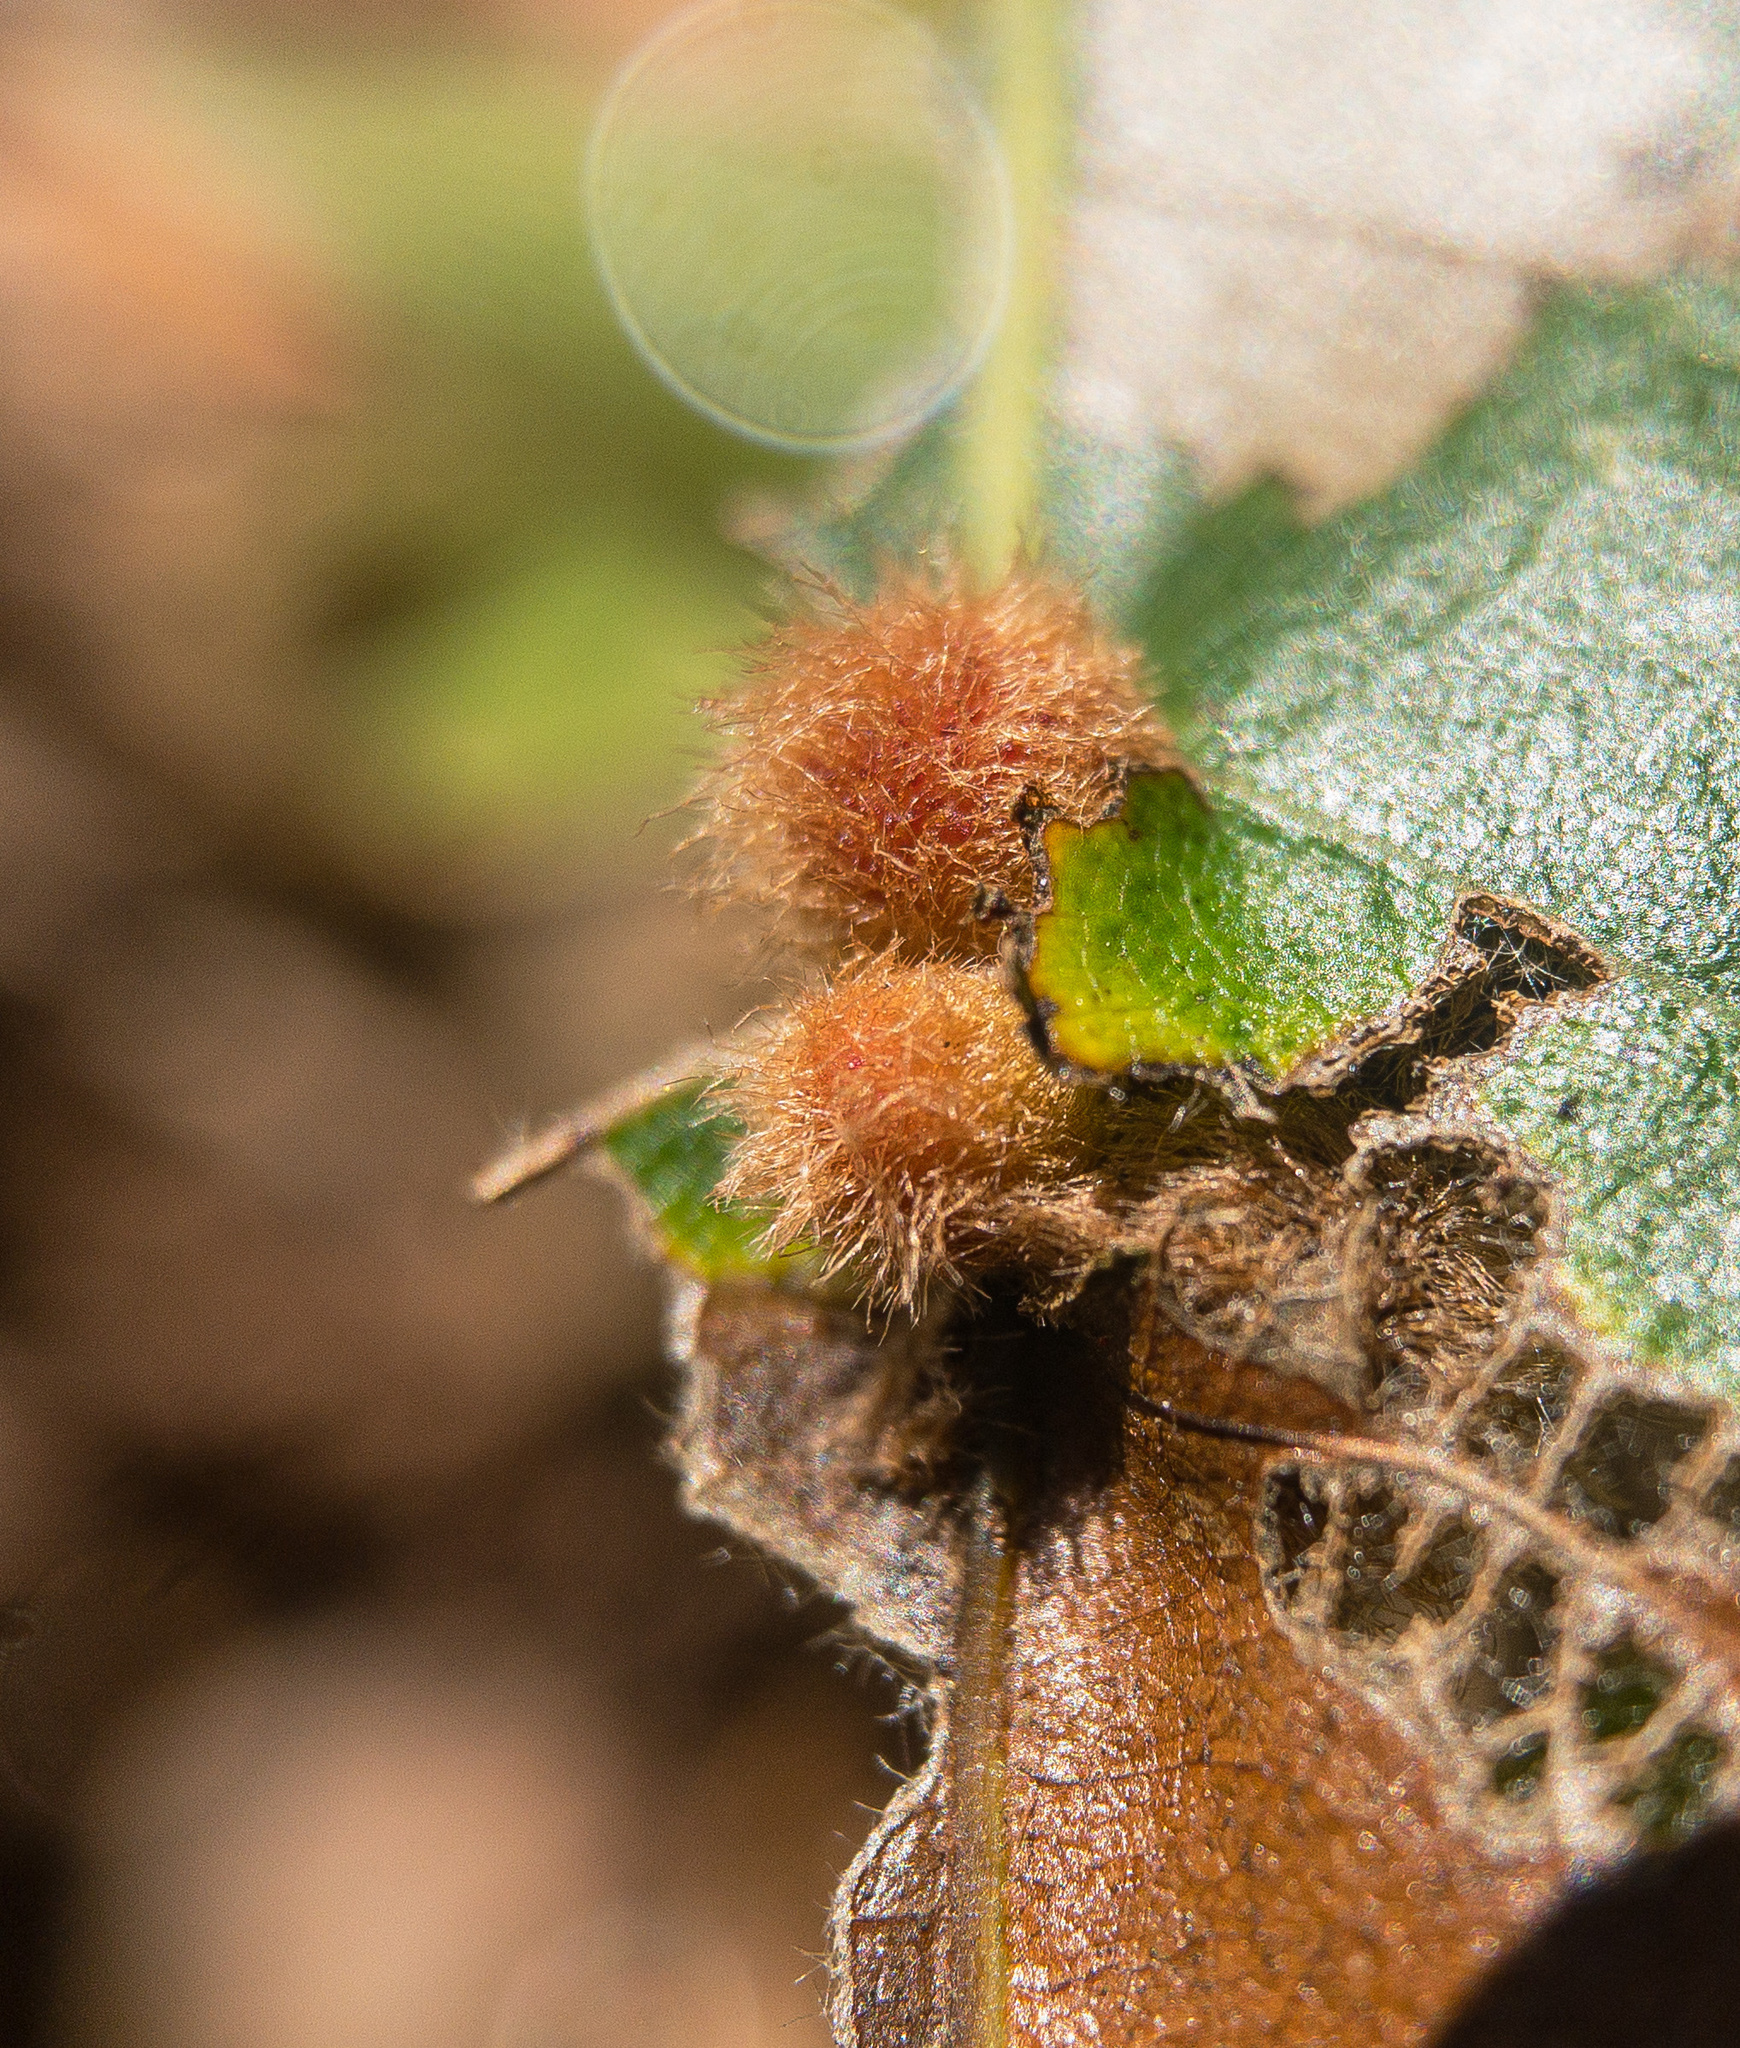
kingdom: Animalia
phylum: Arthropoda
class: Insecta
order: Hymenoptera
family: Cynipidae
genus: Callirhytis
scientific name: Callirhytis
